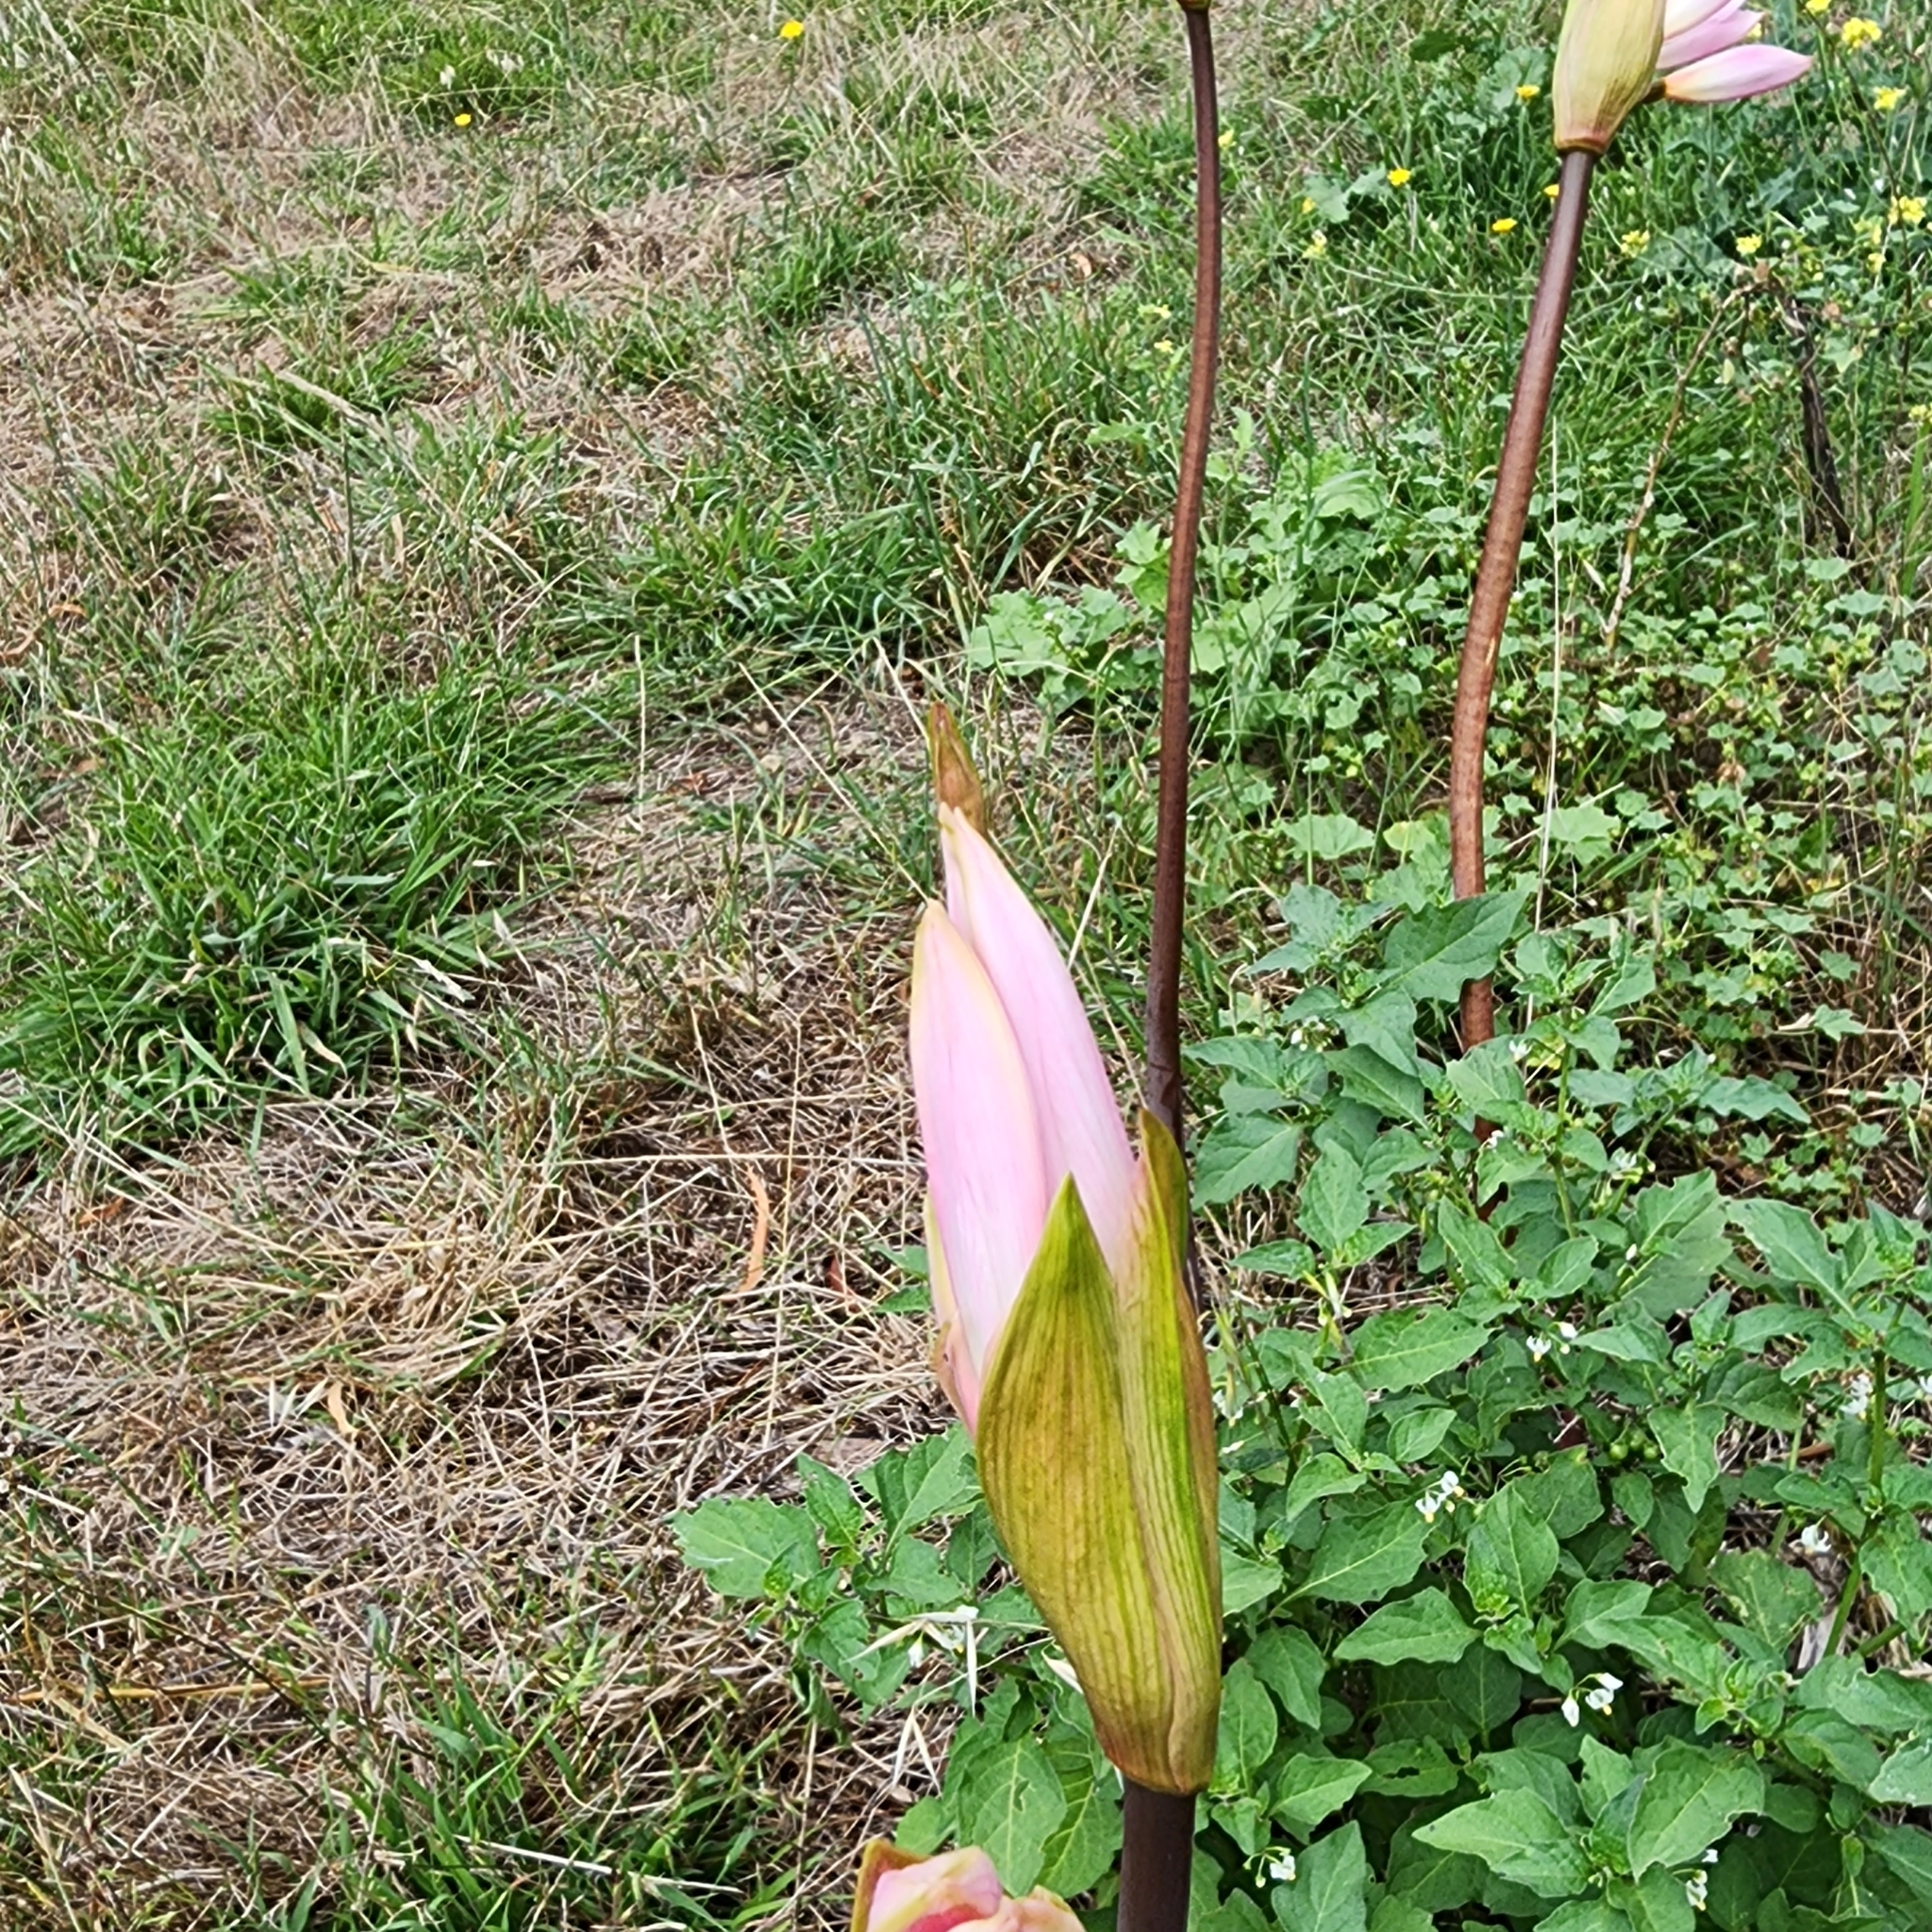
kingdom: Plantae
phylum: Tracheophyta
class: Liliopsida
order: Asparagales
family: Amaryllidaceae
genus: Amaryllis
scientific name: Amaryllis belladonna
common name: Jersey lily
